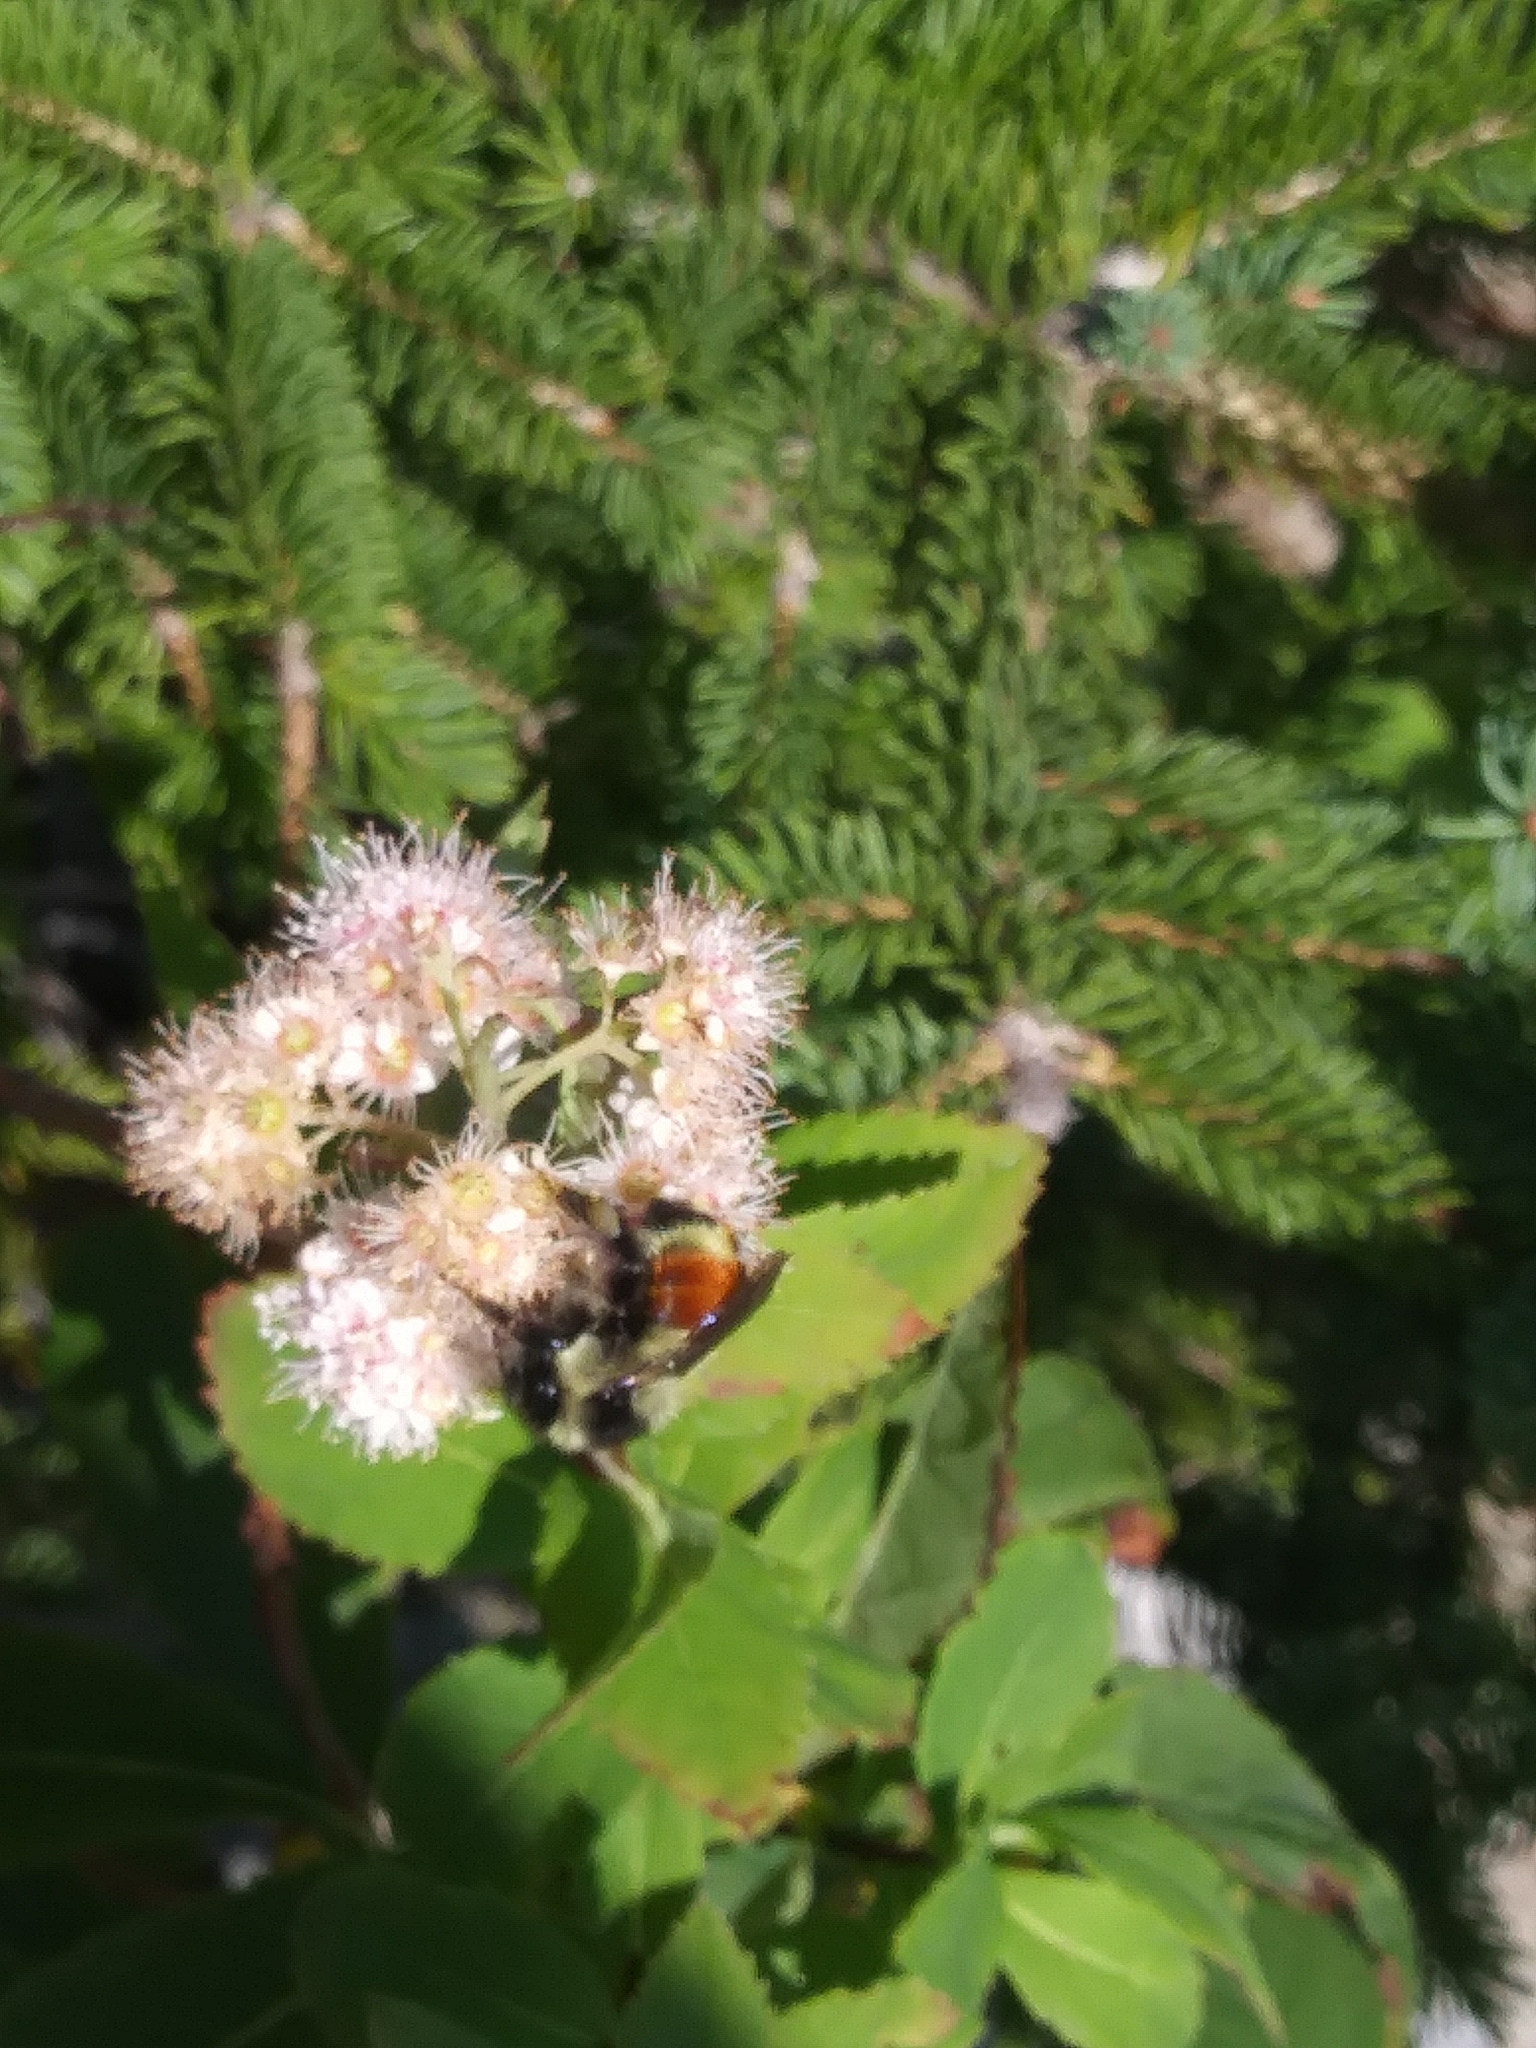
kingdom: Animalia
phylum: Arthropoda
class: Insecta
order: Hymenoptera
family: Apidae
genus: Bombus
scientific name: Bombus ternarius
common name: Tri-colored bumble bee
